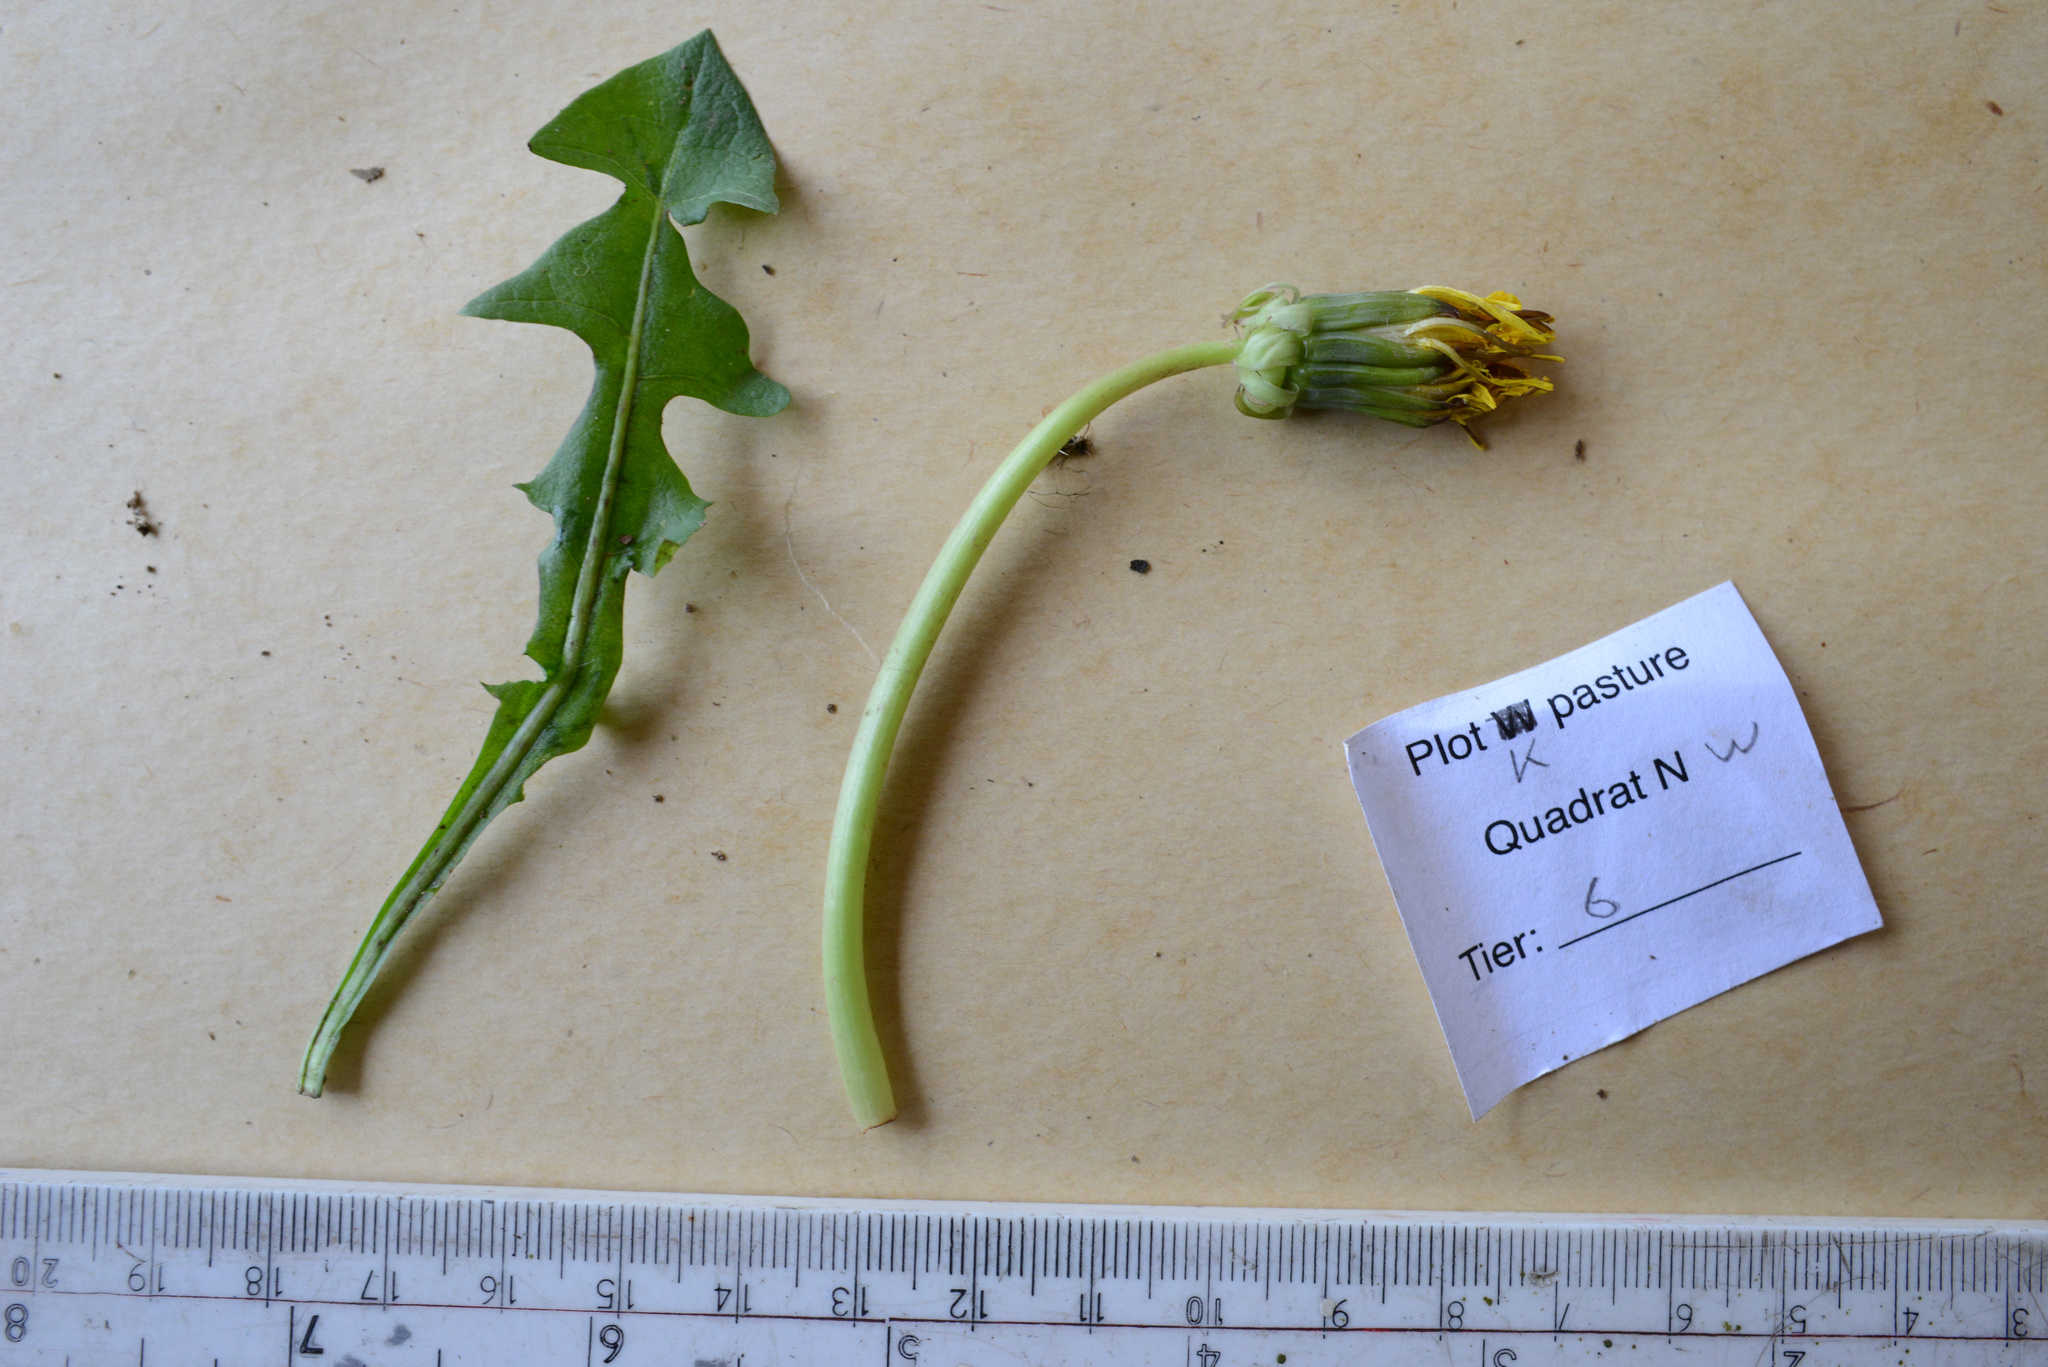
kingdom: Plantae
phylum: Tracheophyta
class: Magnoliopsida
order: Asterales
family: Asteraceae
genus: Taraxacum
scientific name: Taraxacum officinale
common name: Common dandelion
